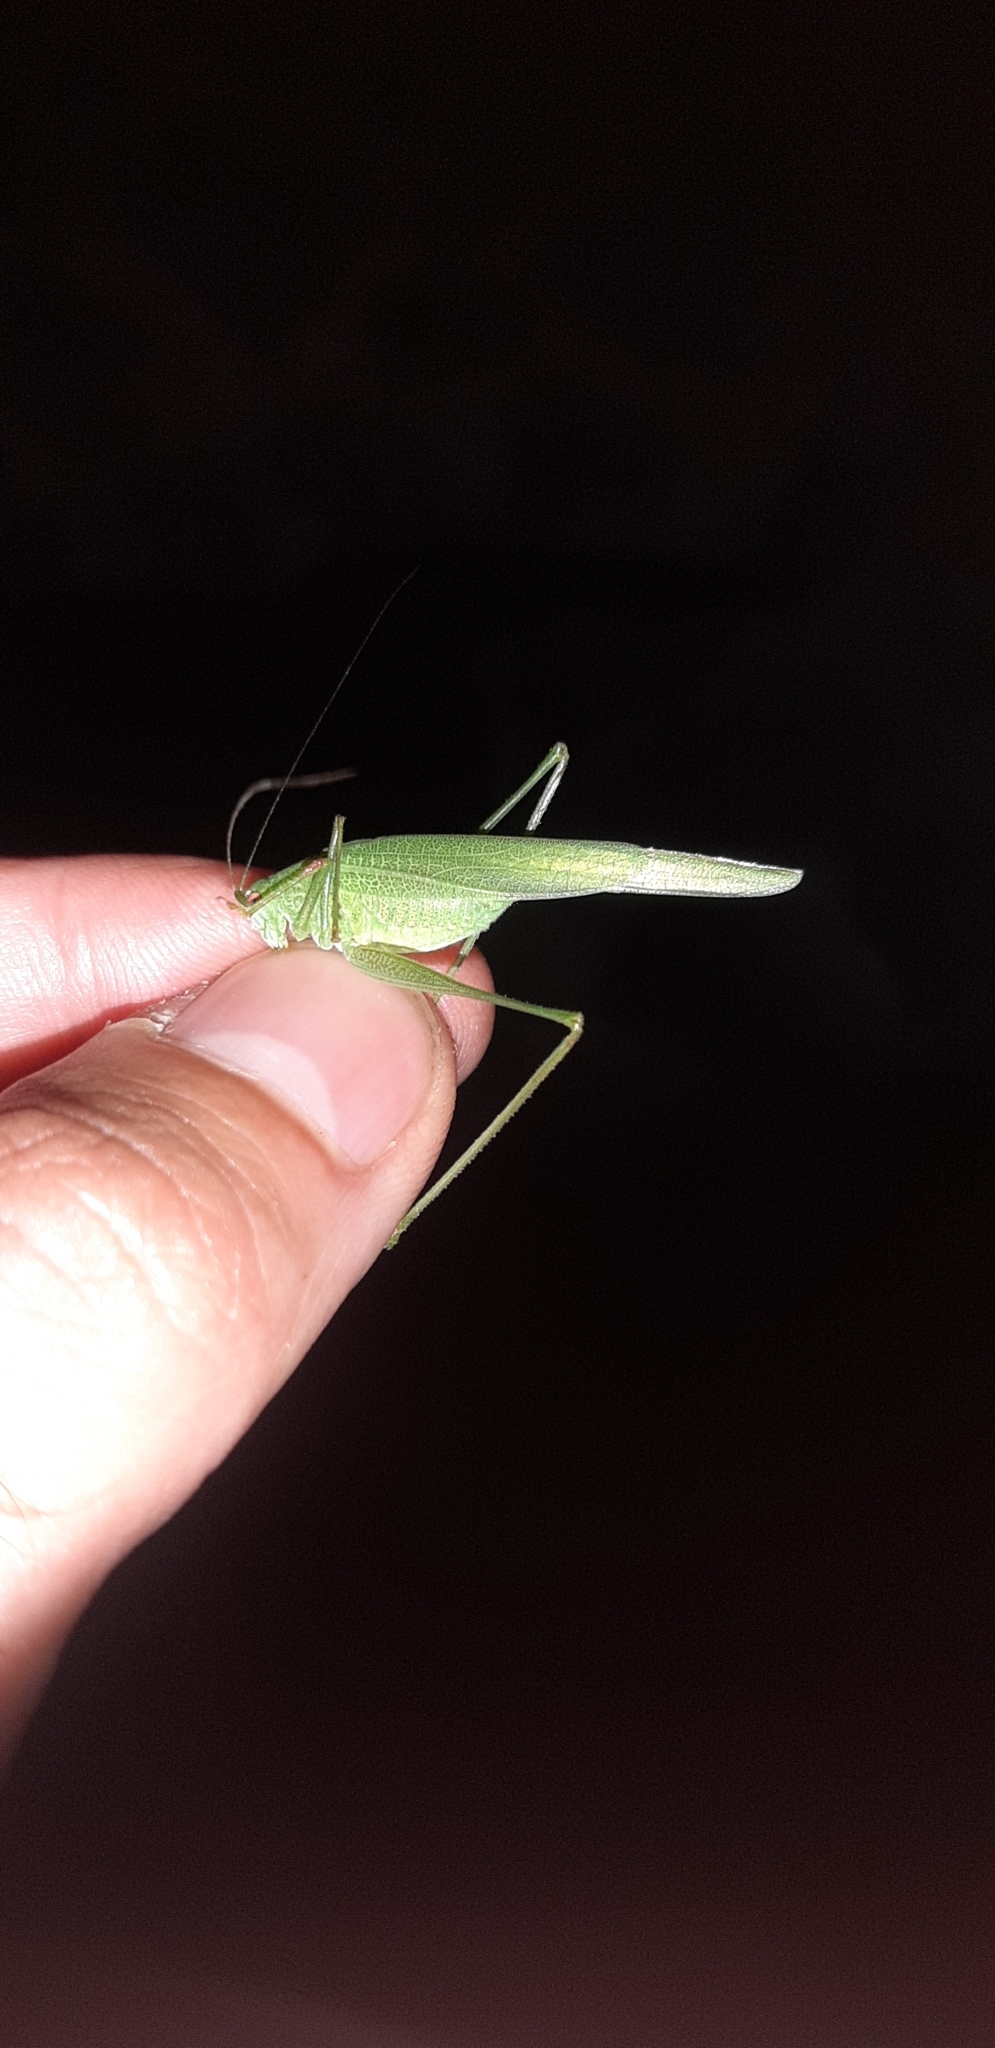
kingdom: Animalia
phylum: Arthropoda
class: Insecta
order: Orthoptera
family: Tettigoniidae
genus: Phaneroptera
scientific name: Phaneroptera nana
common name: Southern sickle bush-cricket
